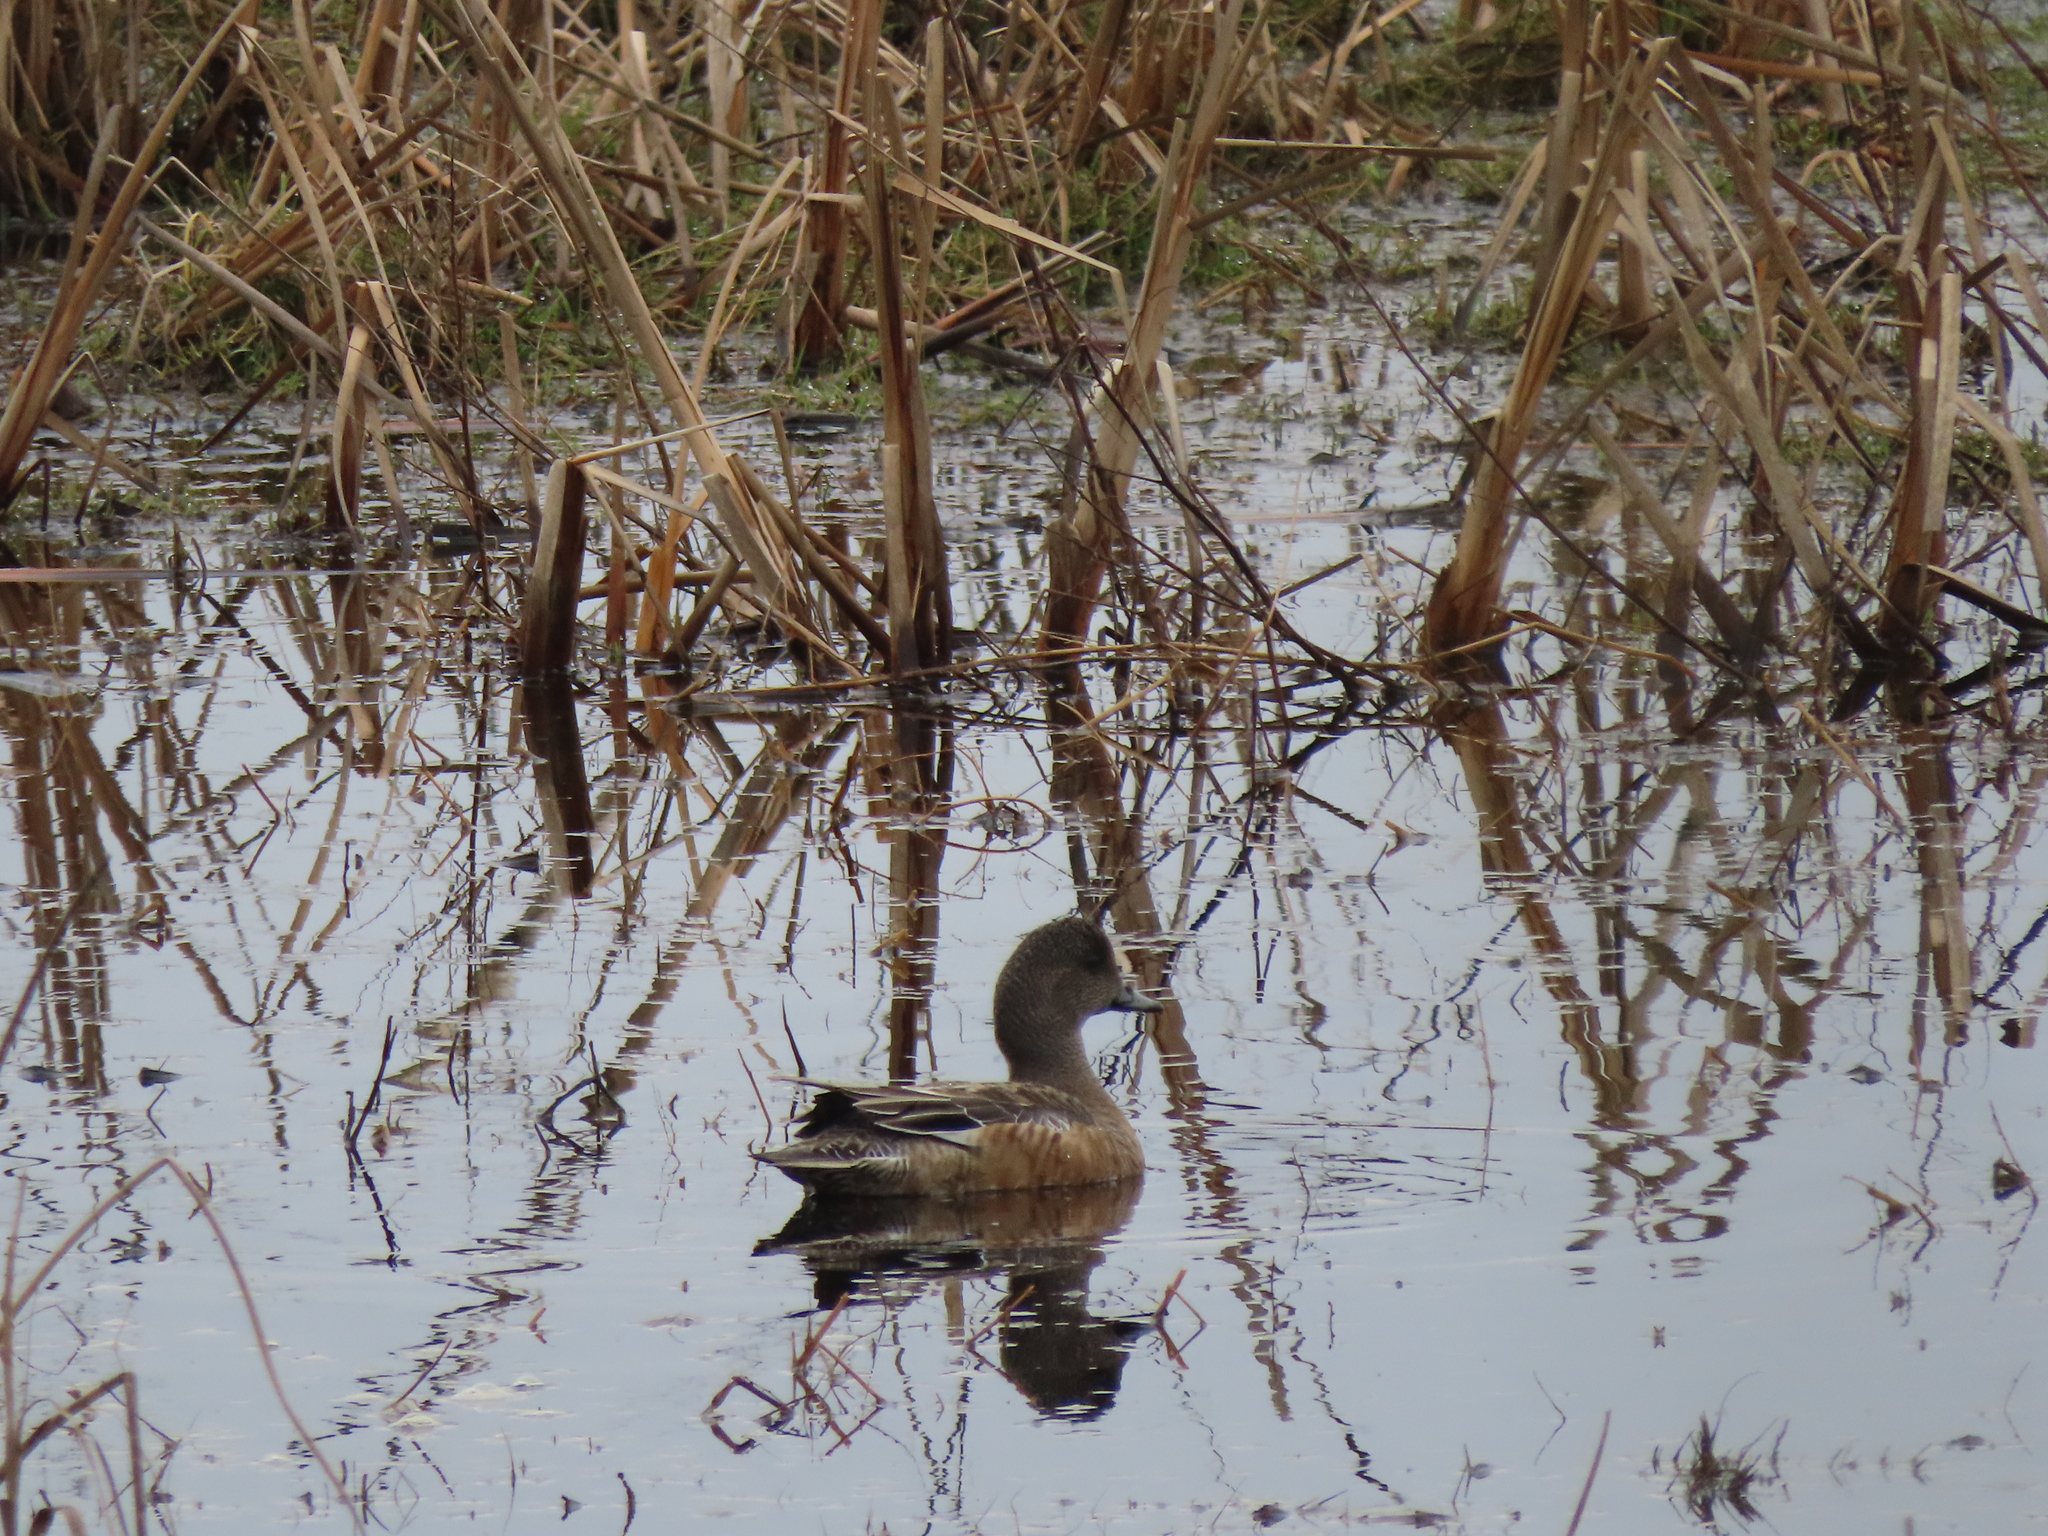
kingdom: Animalia
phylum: Chordata
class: Aves
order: Anseriformes
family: Anatidae
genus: Mareca
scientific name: Mareca americana
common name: American wigeon
